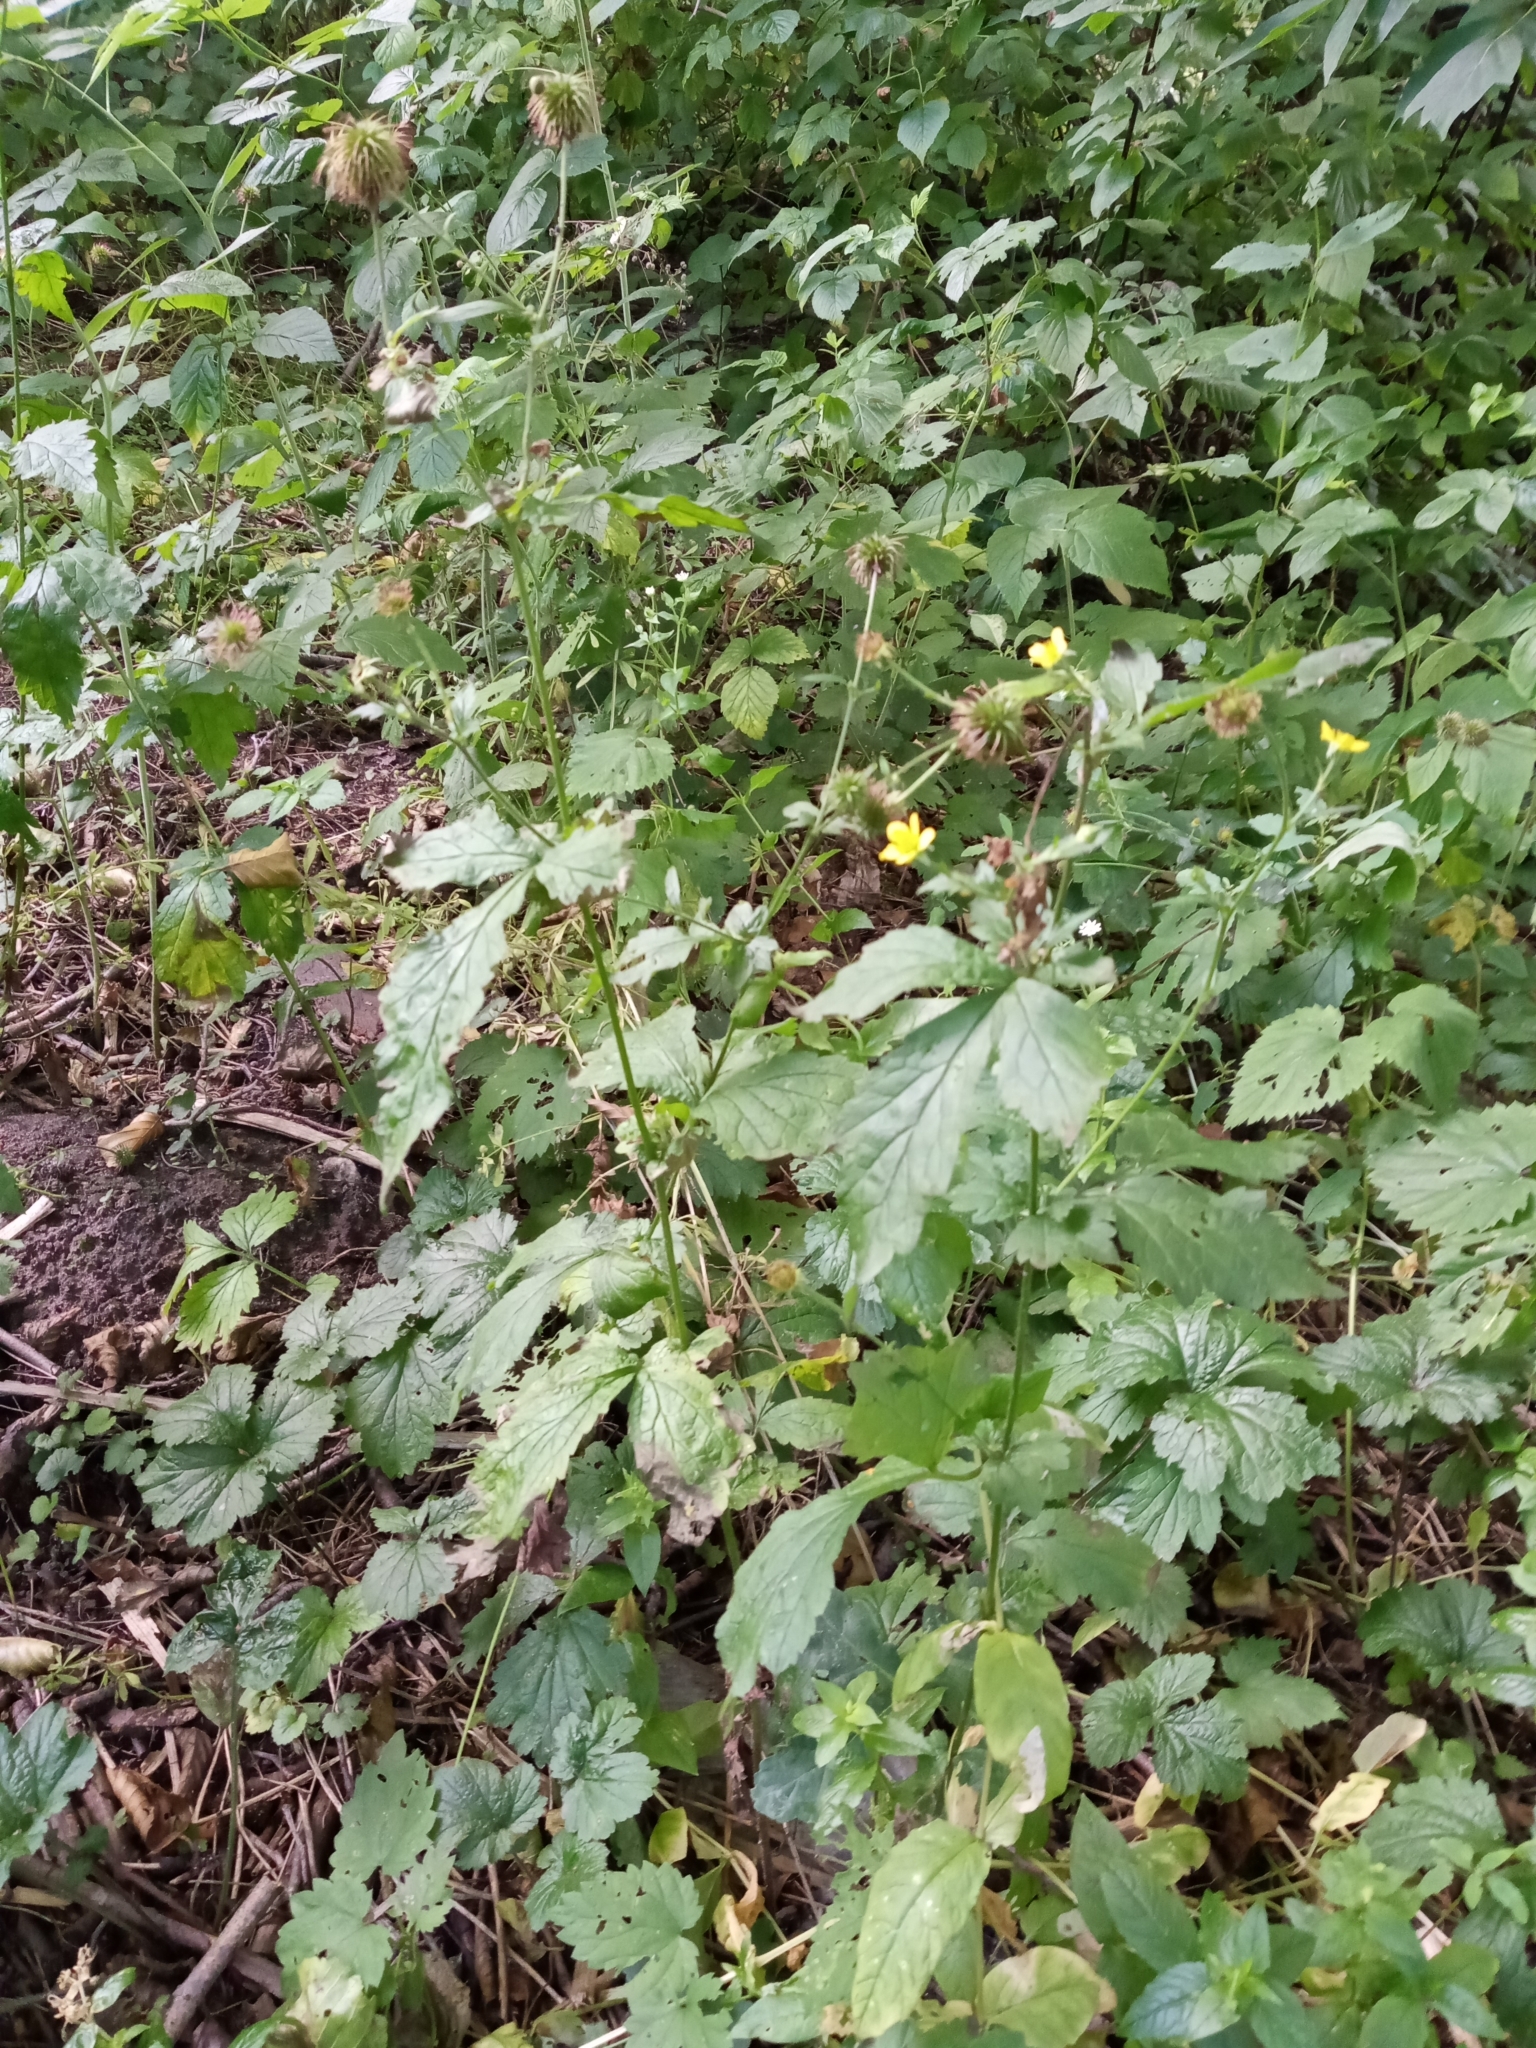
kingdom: Plantae
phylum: Tracheophyta
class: Magnoliopsida
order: Rosales
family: Rosaceae
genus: Geum
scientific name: Geum urbanum
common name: Wood avens
